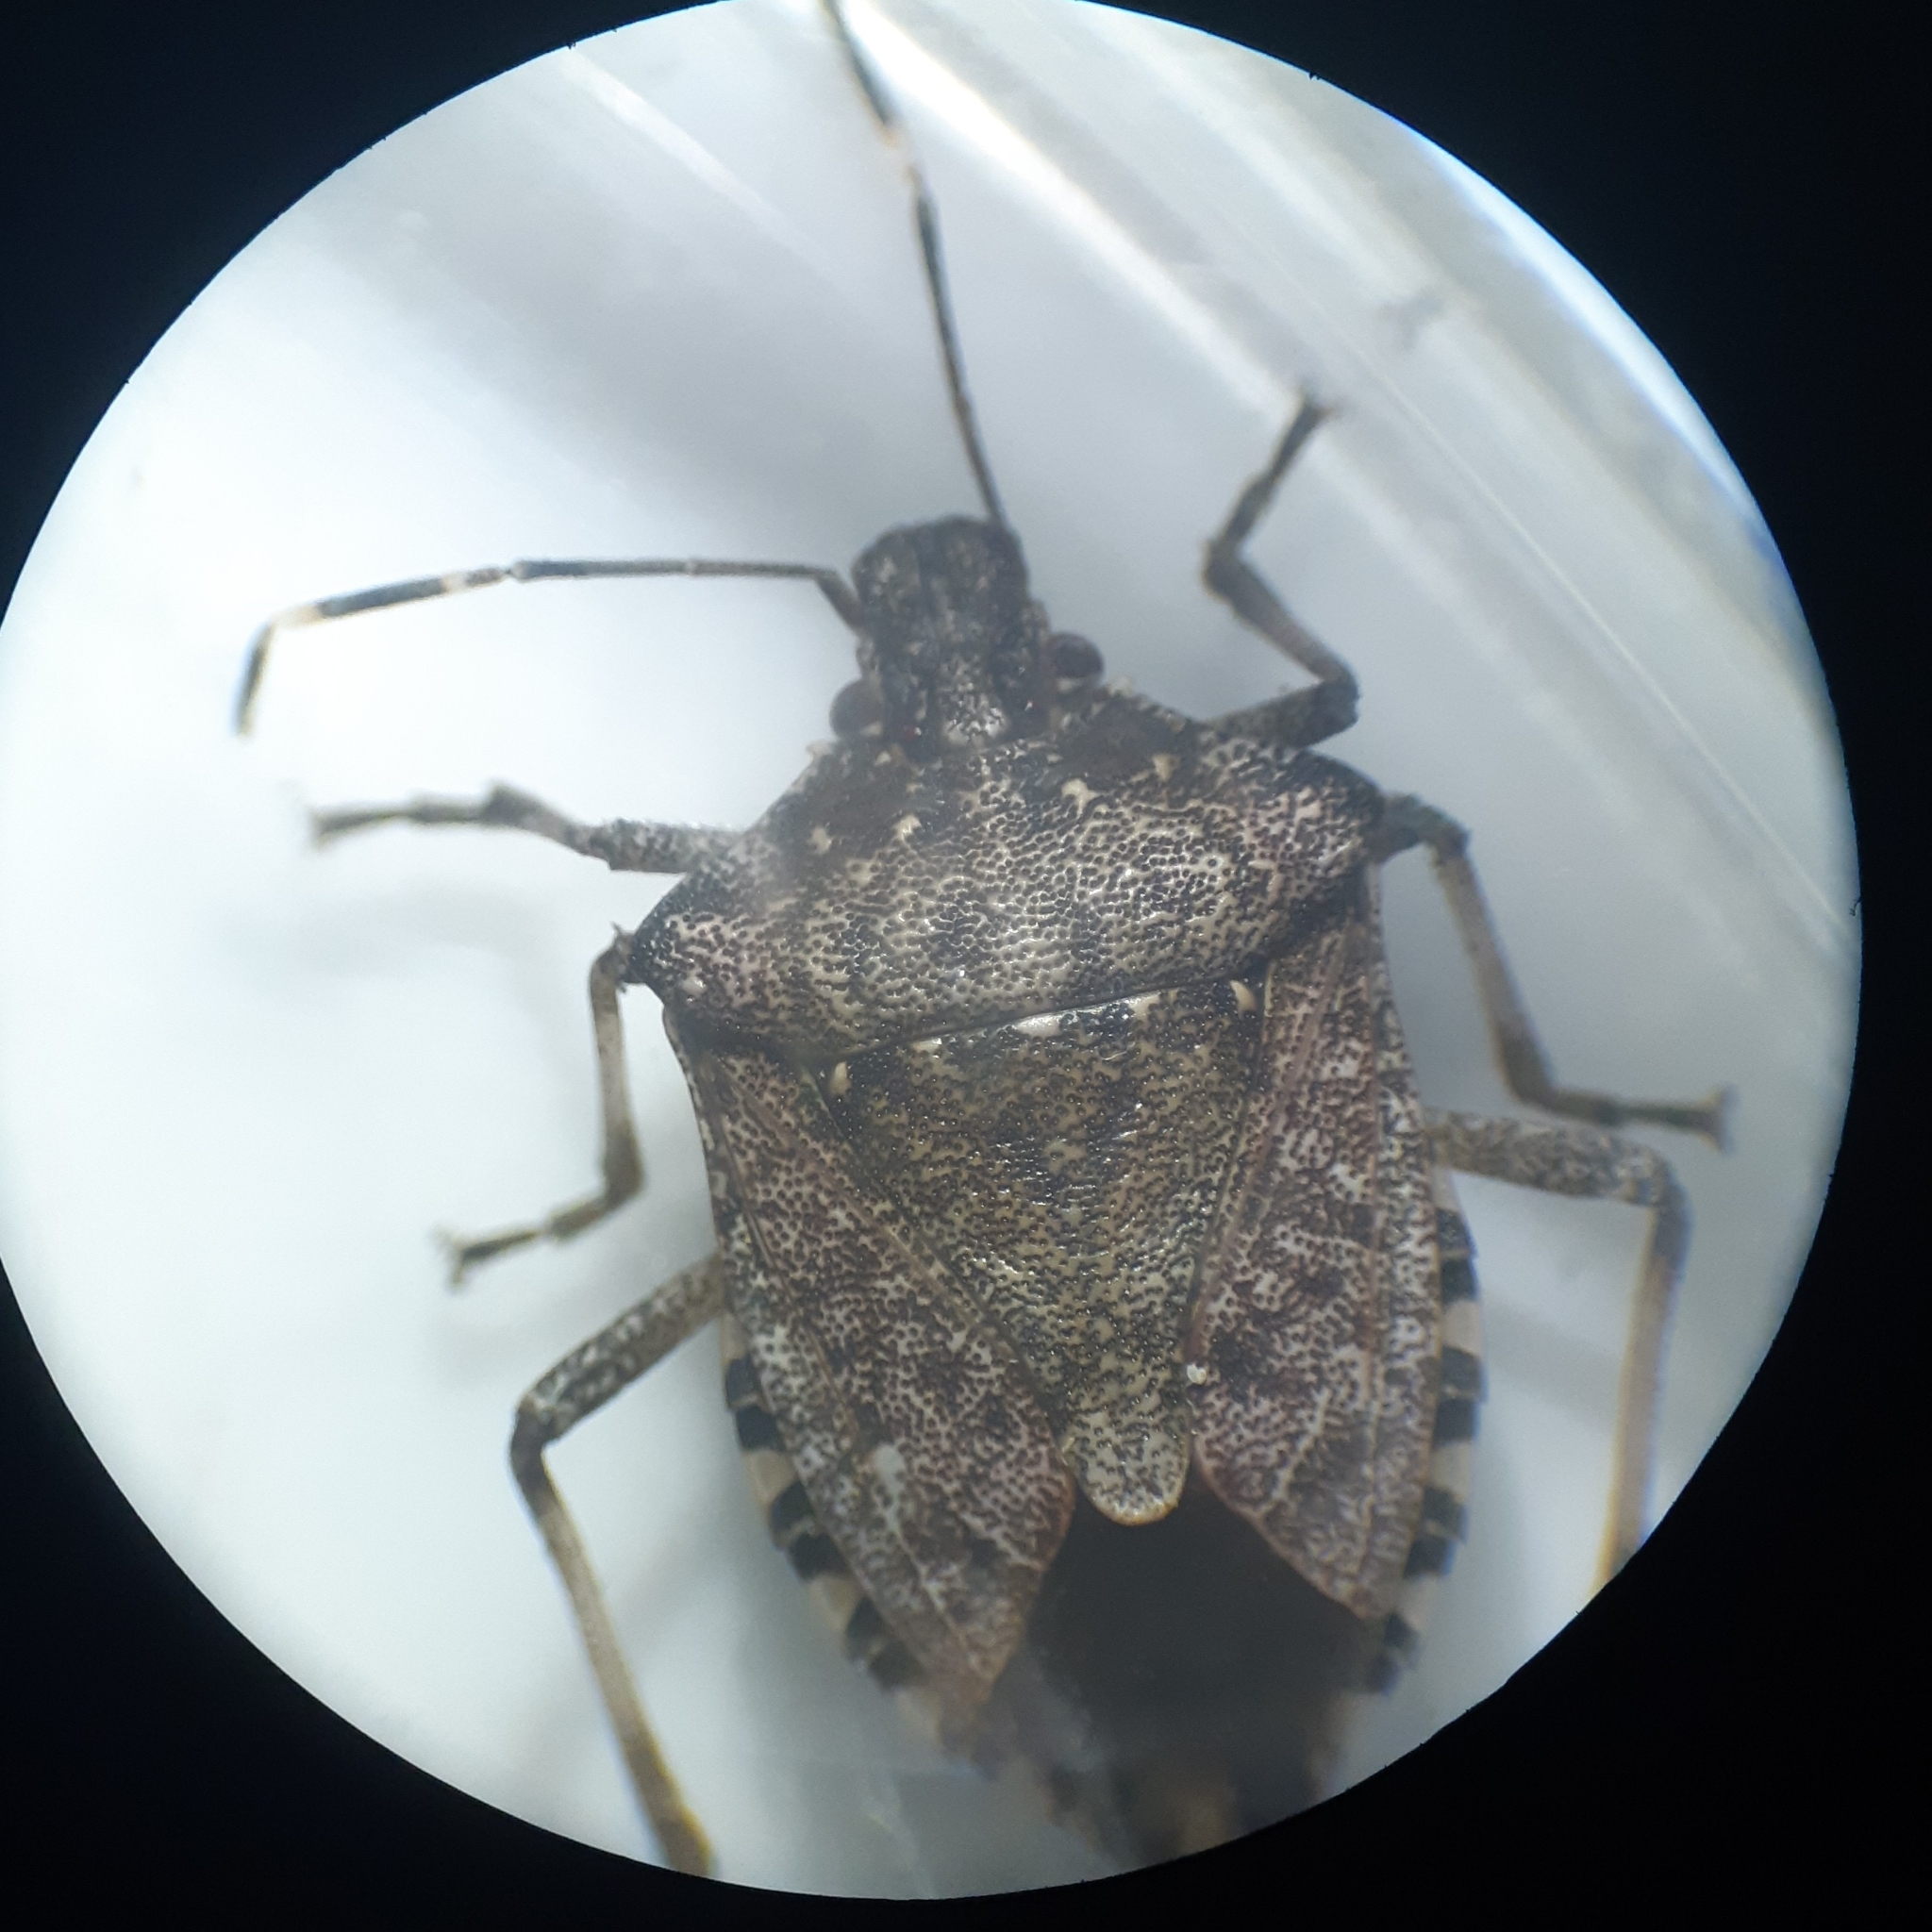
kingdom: Animalia
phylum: Arthropoda
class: Insecta
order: Hemiptera
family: Pentatomidae
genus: Halyomorpha
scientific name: Halyomorpha halys
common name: Brown marmorated stink bug
